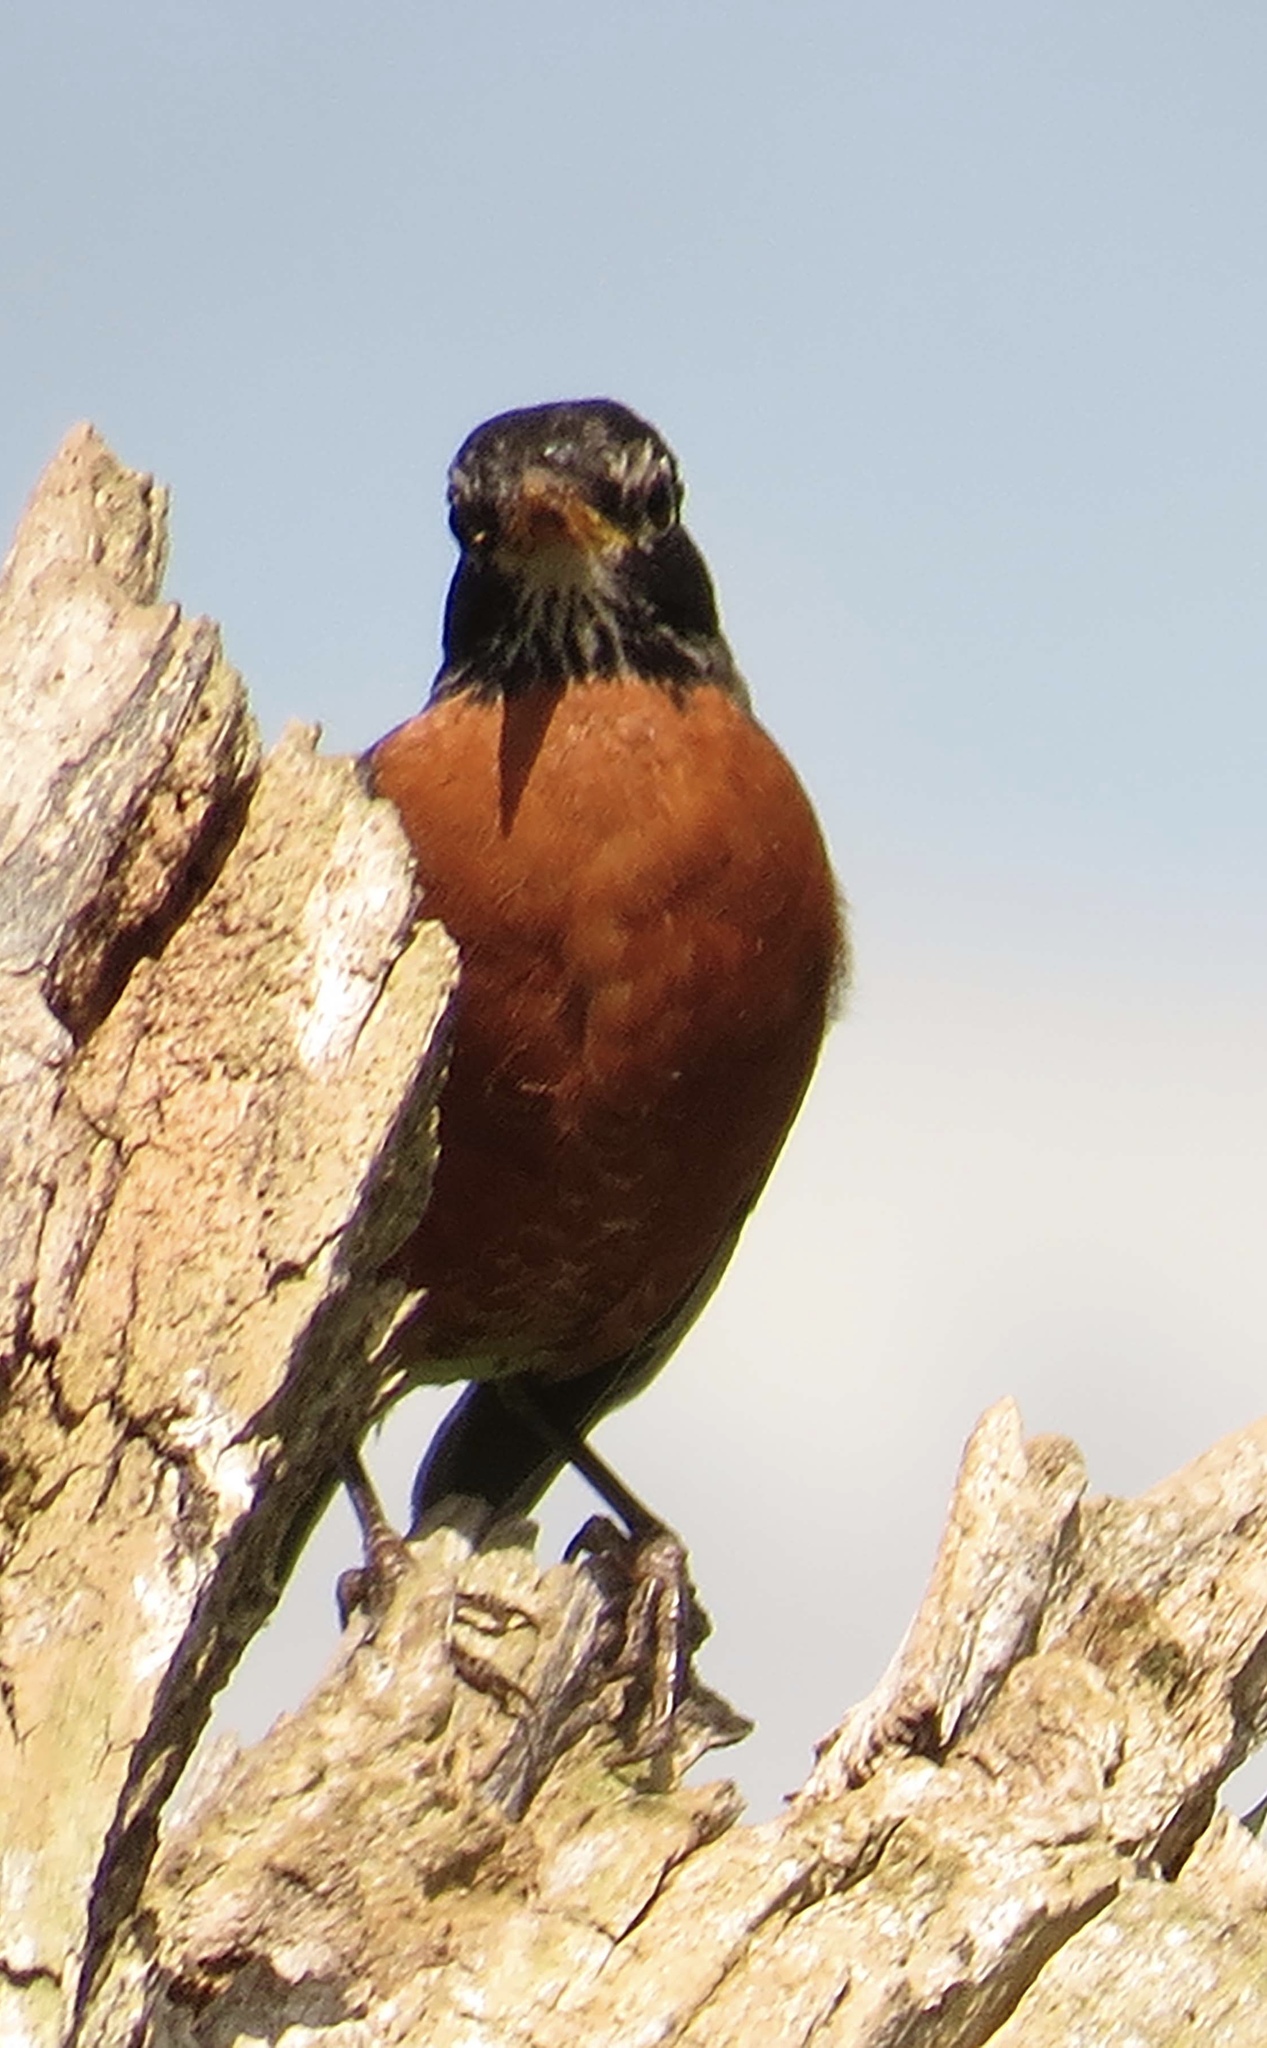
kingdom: Animalia
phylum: Chordata
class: Aves
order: Passeriformes
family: Turdidae
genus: Turdus
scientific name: Turdus migratorius
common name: American robin
